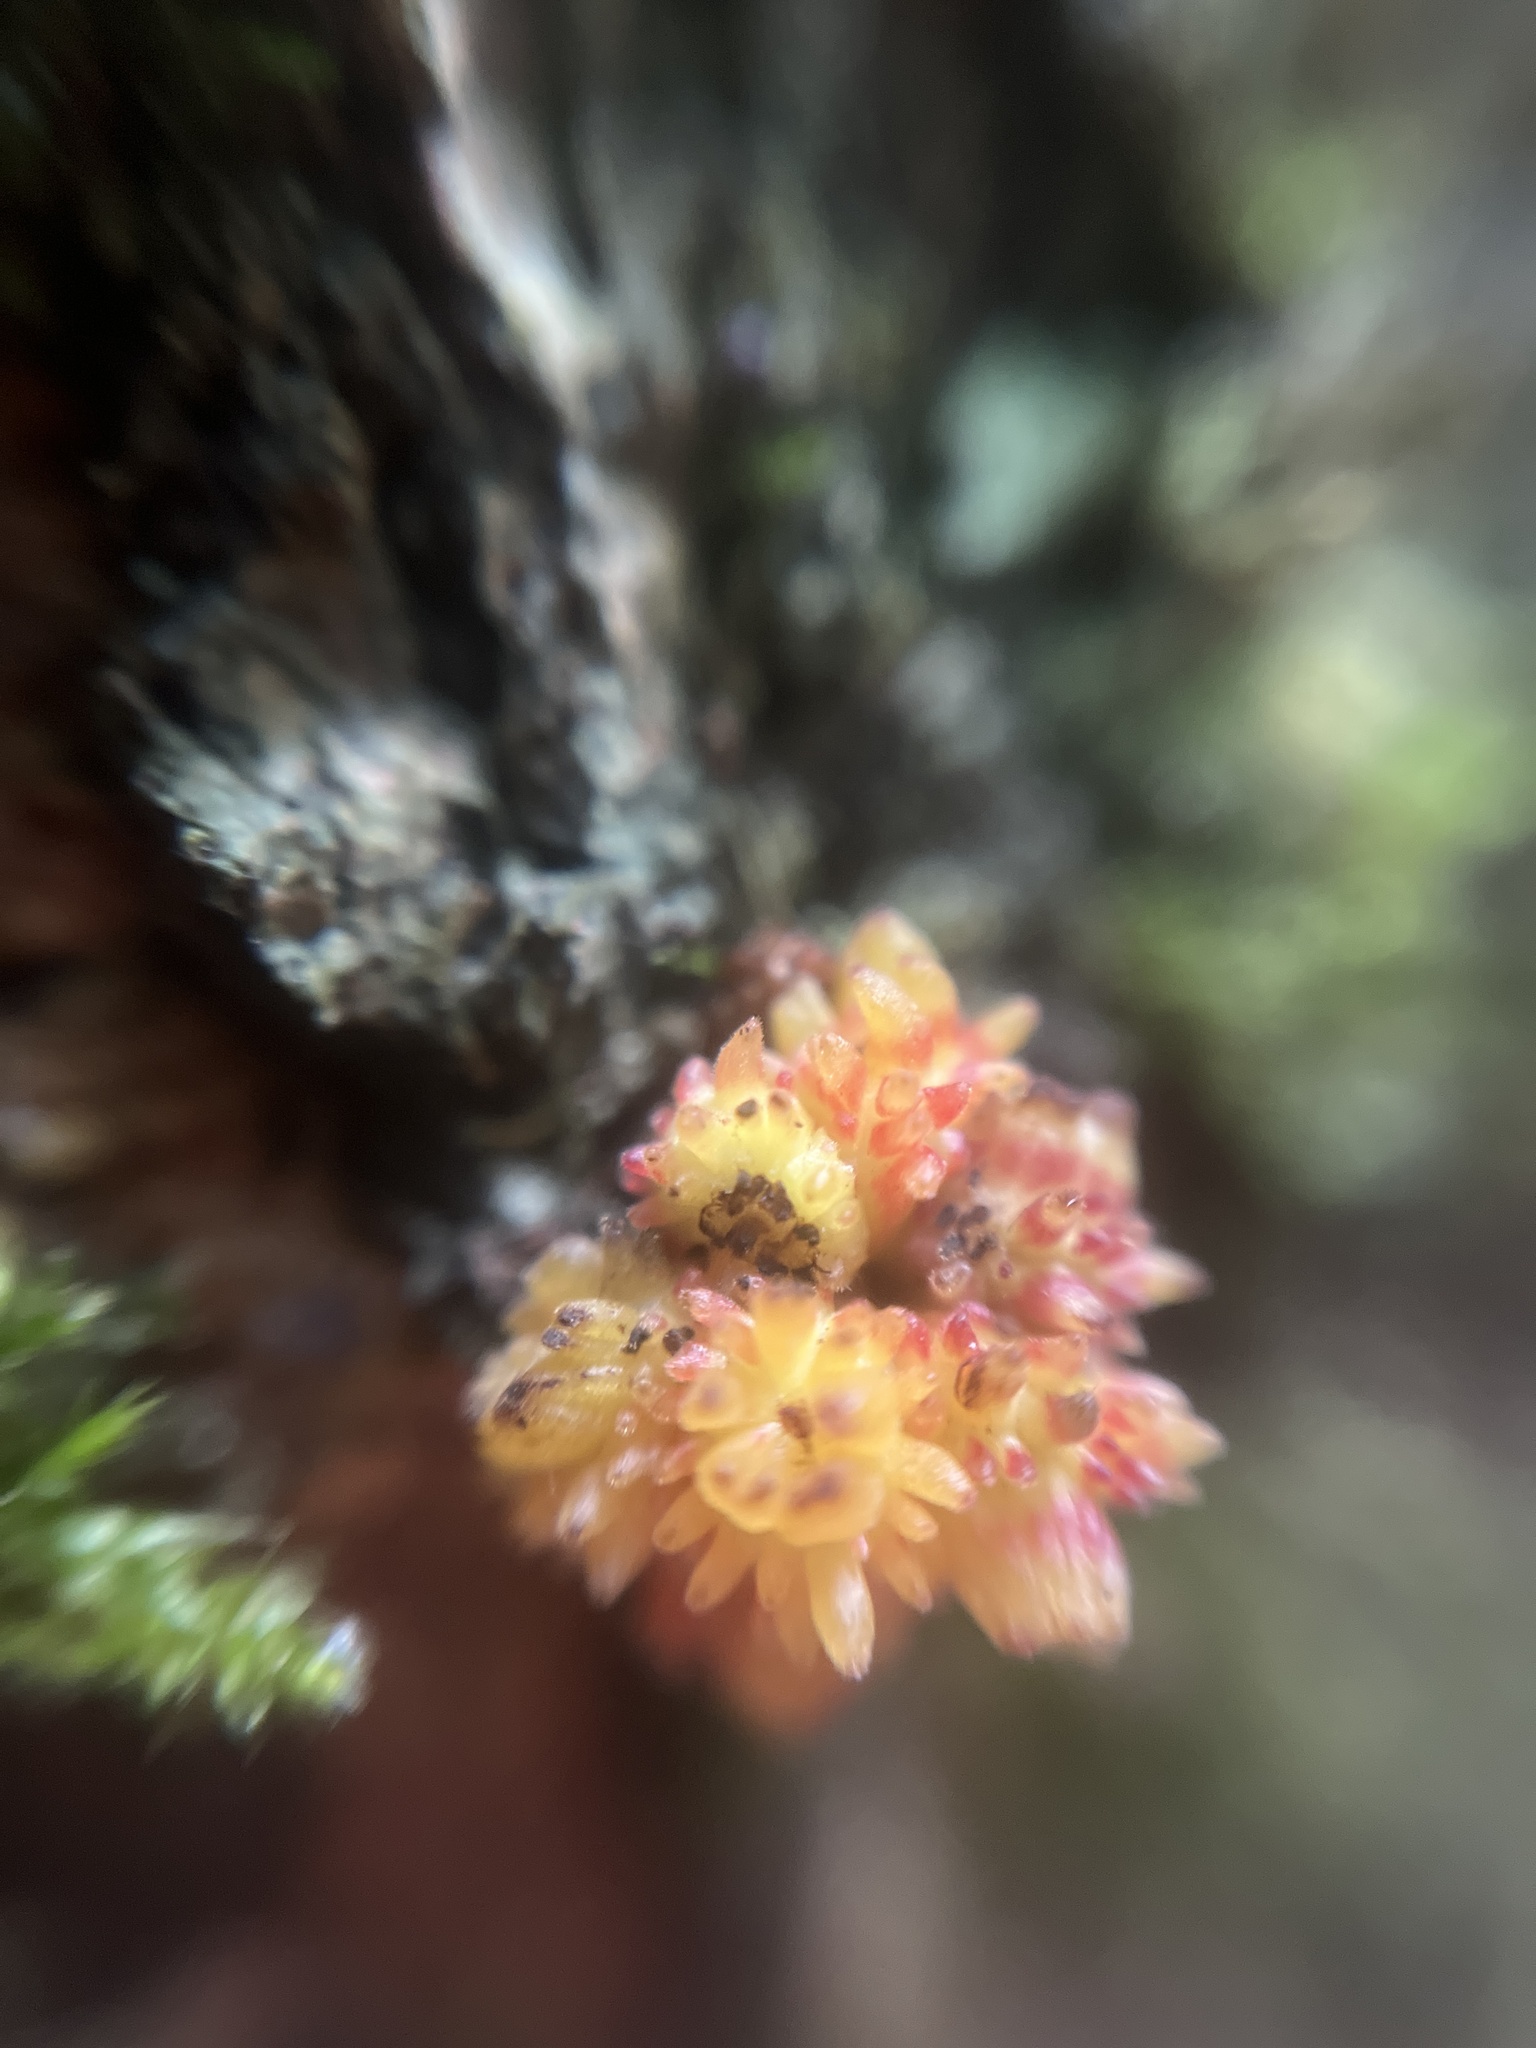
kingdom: Animalia
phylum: Arthropoda
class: Insecta
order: Hymenoptera
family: Cynipidae
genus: Andricus
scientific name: Andricus gemmeus
